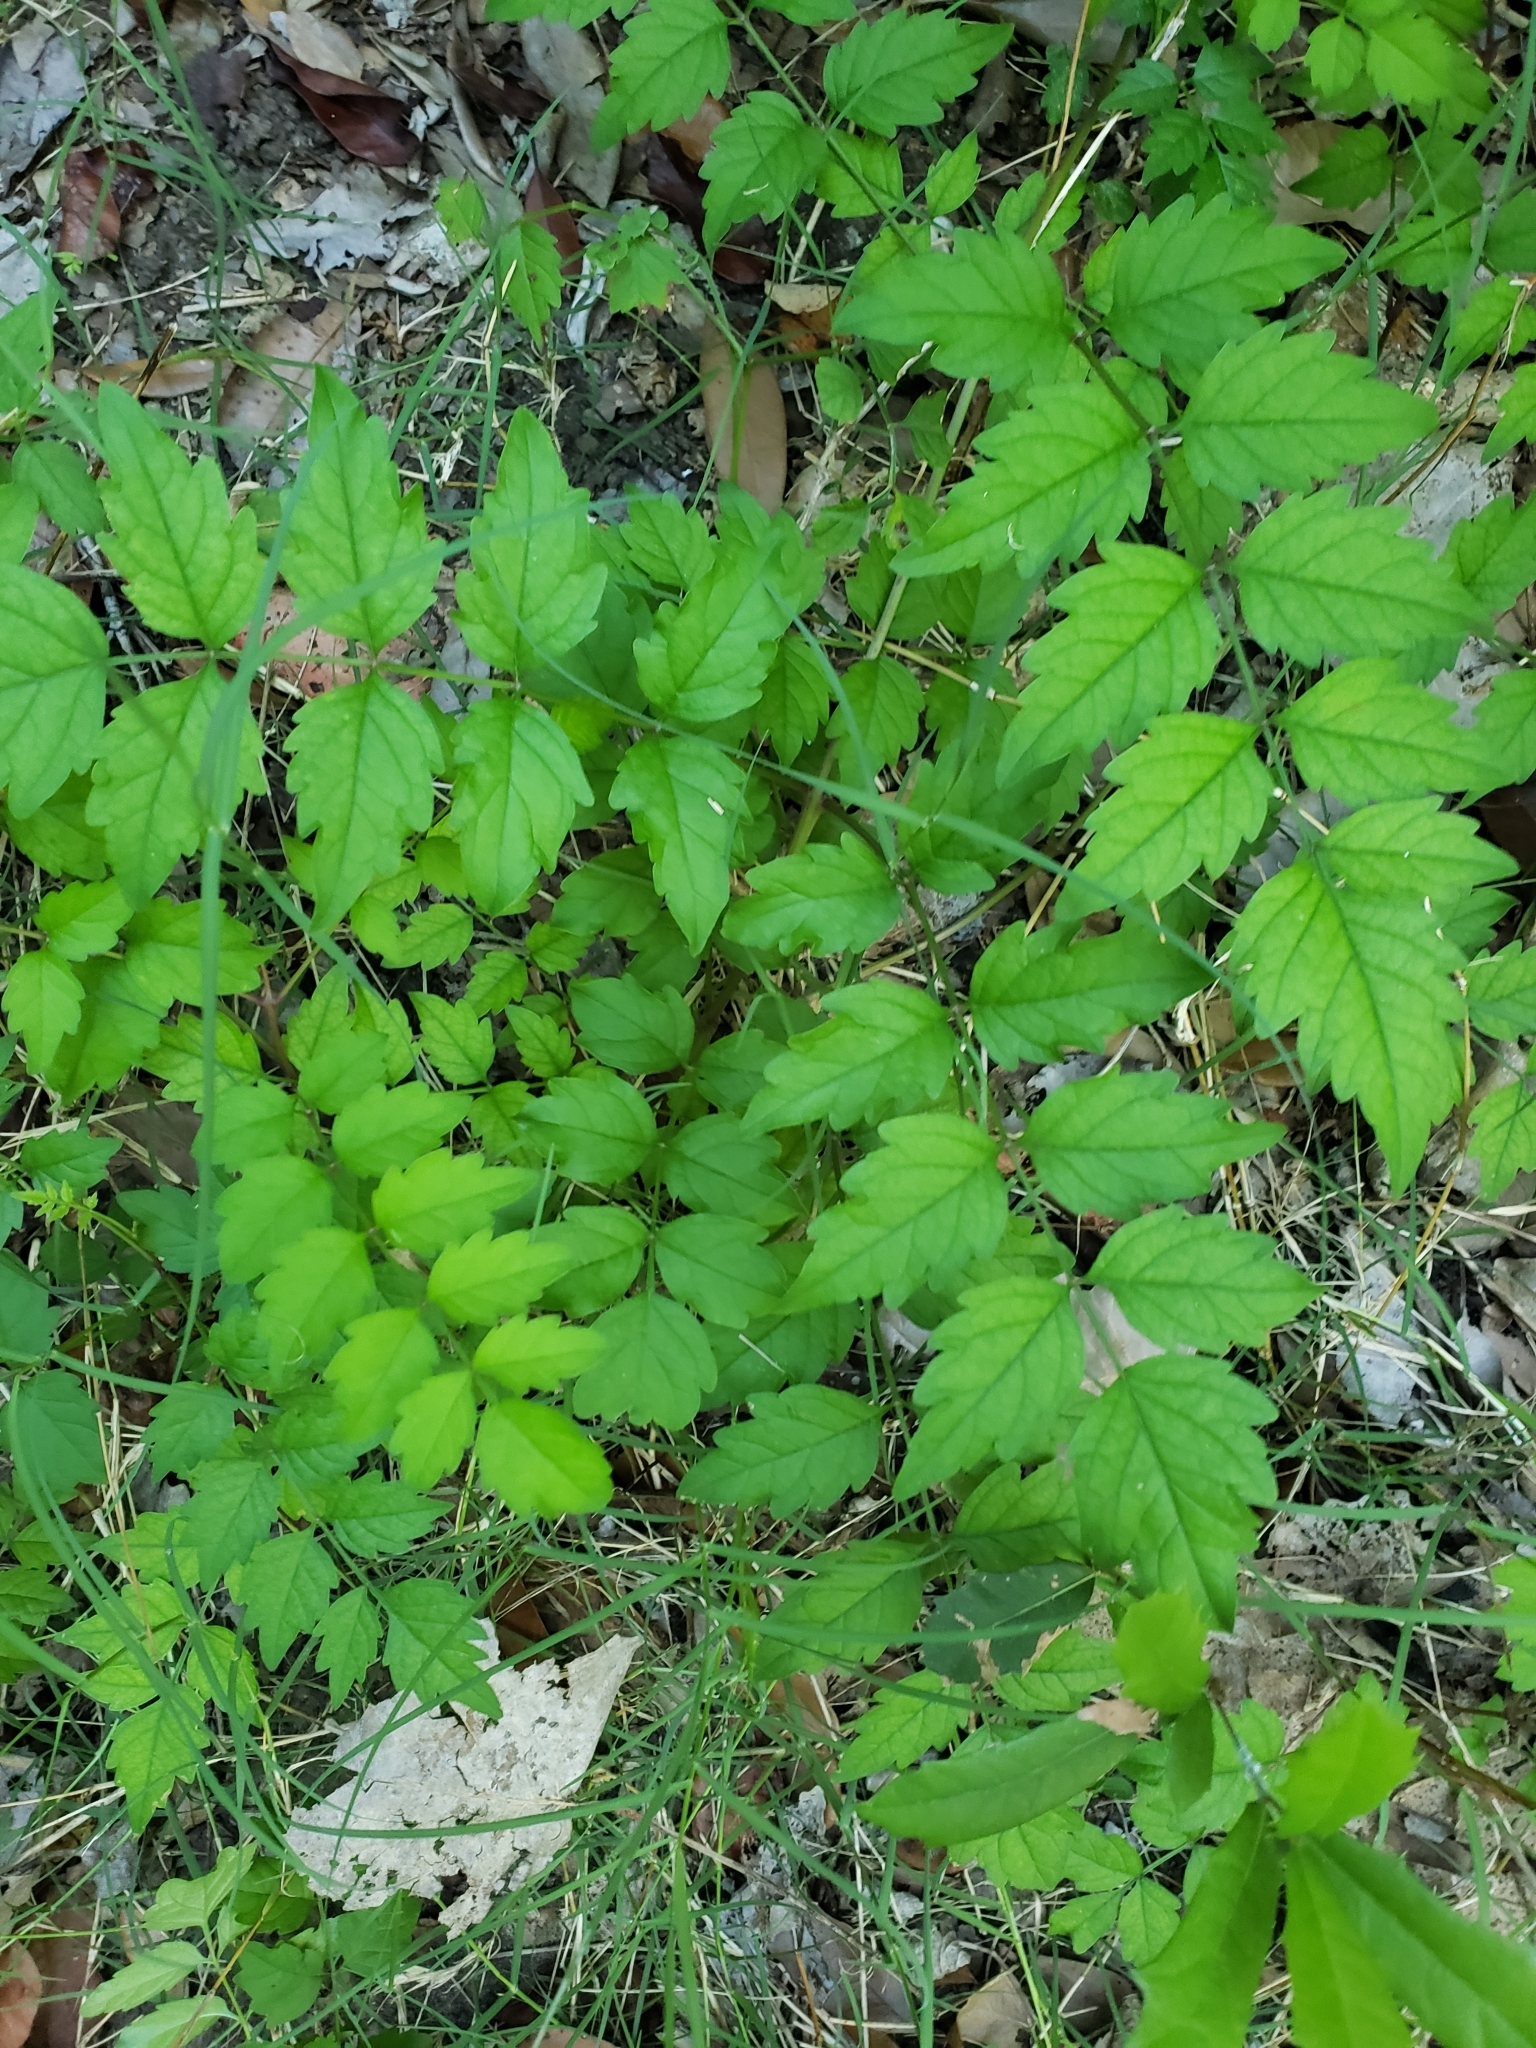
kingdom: Plantae
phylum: Tracheophyta
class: Magnoliopsida
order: Lamiales
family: Bignoniaceae
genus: Campsis
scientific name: Campsis radicans
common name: Trumpet-creeper
